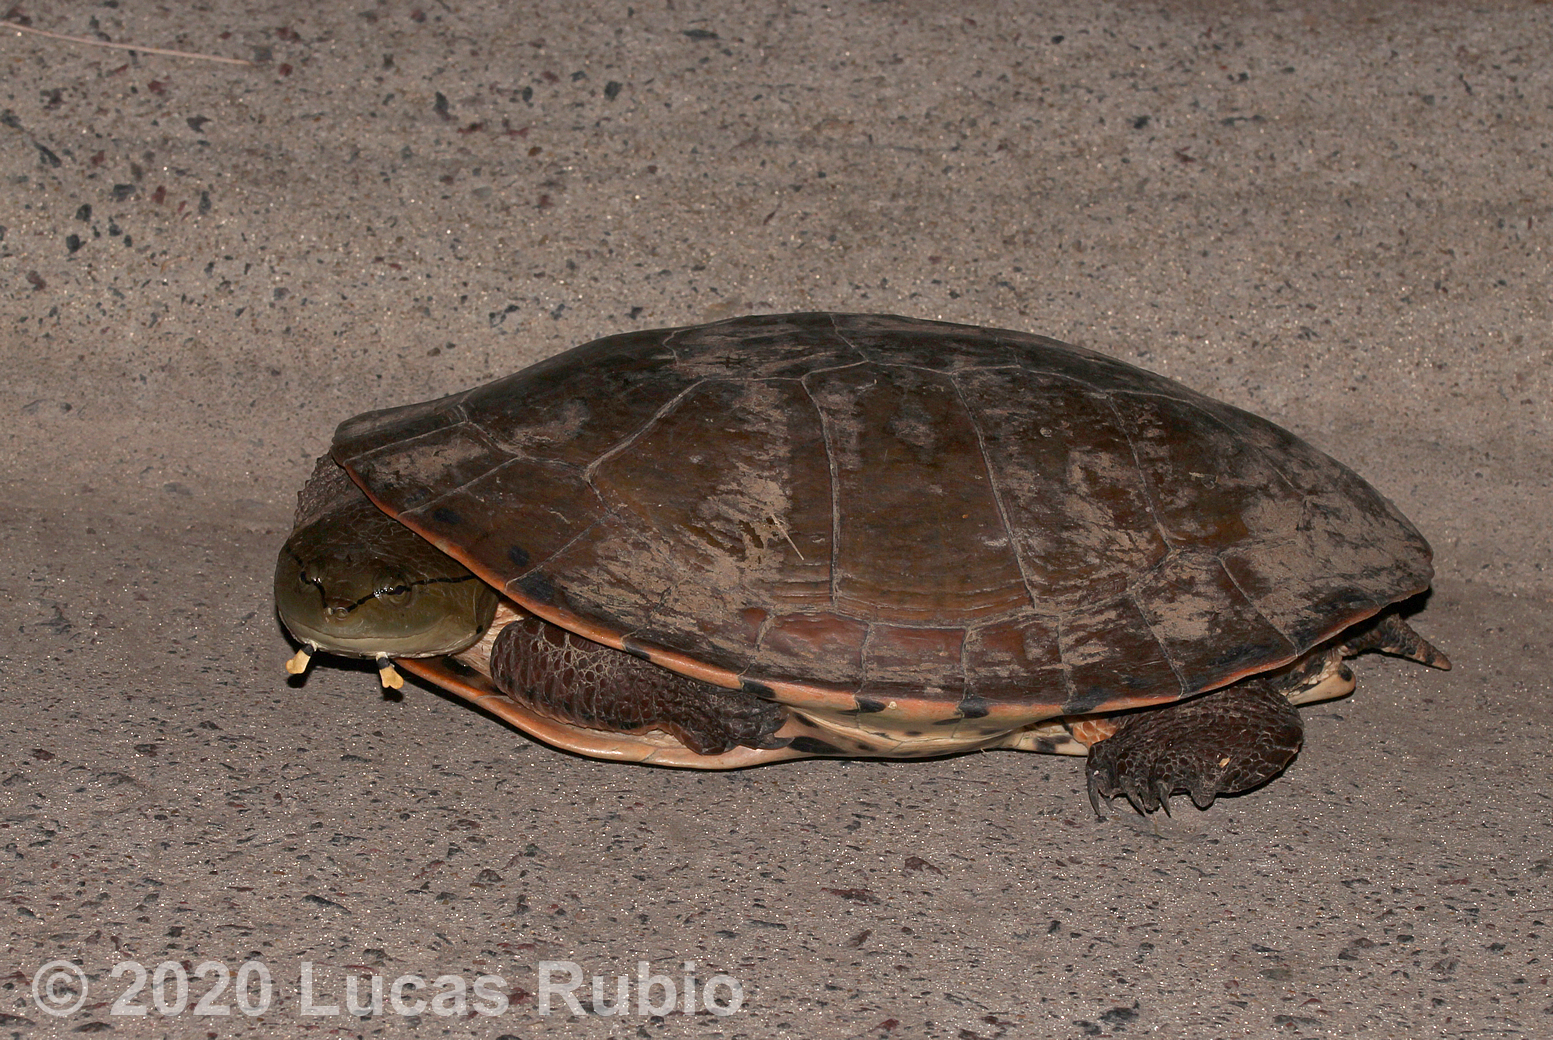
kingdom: Animalia
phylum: Chordata
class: Testudines
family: Chelidae
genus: Phrynops
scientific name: Phrynops hilarii
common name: Side-necked turtle of saint hillaire
